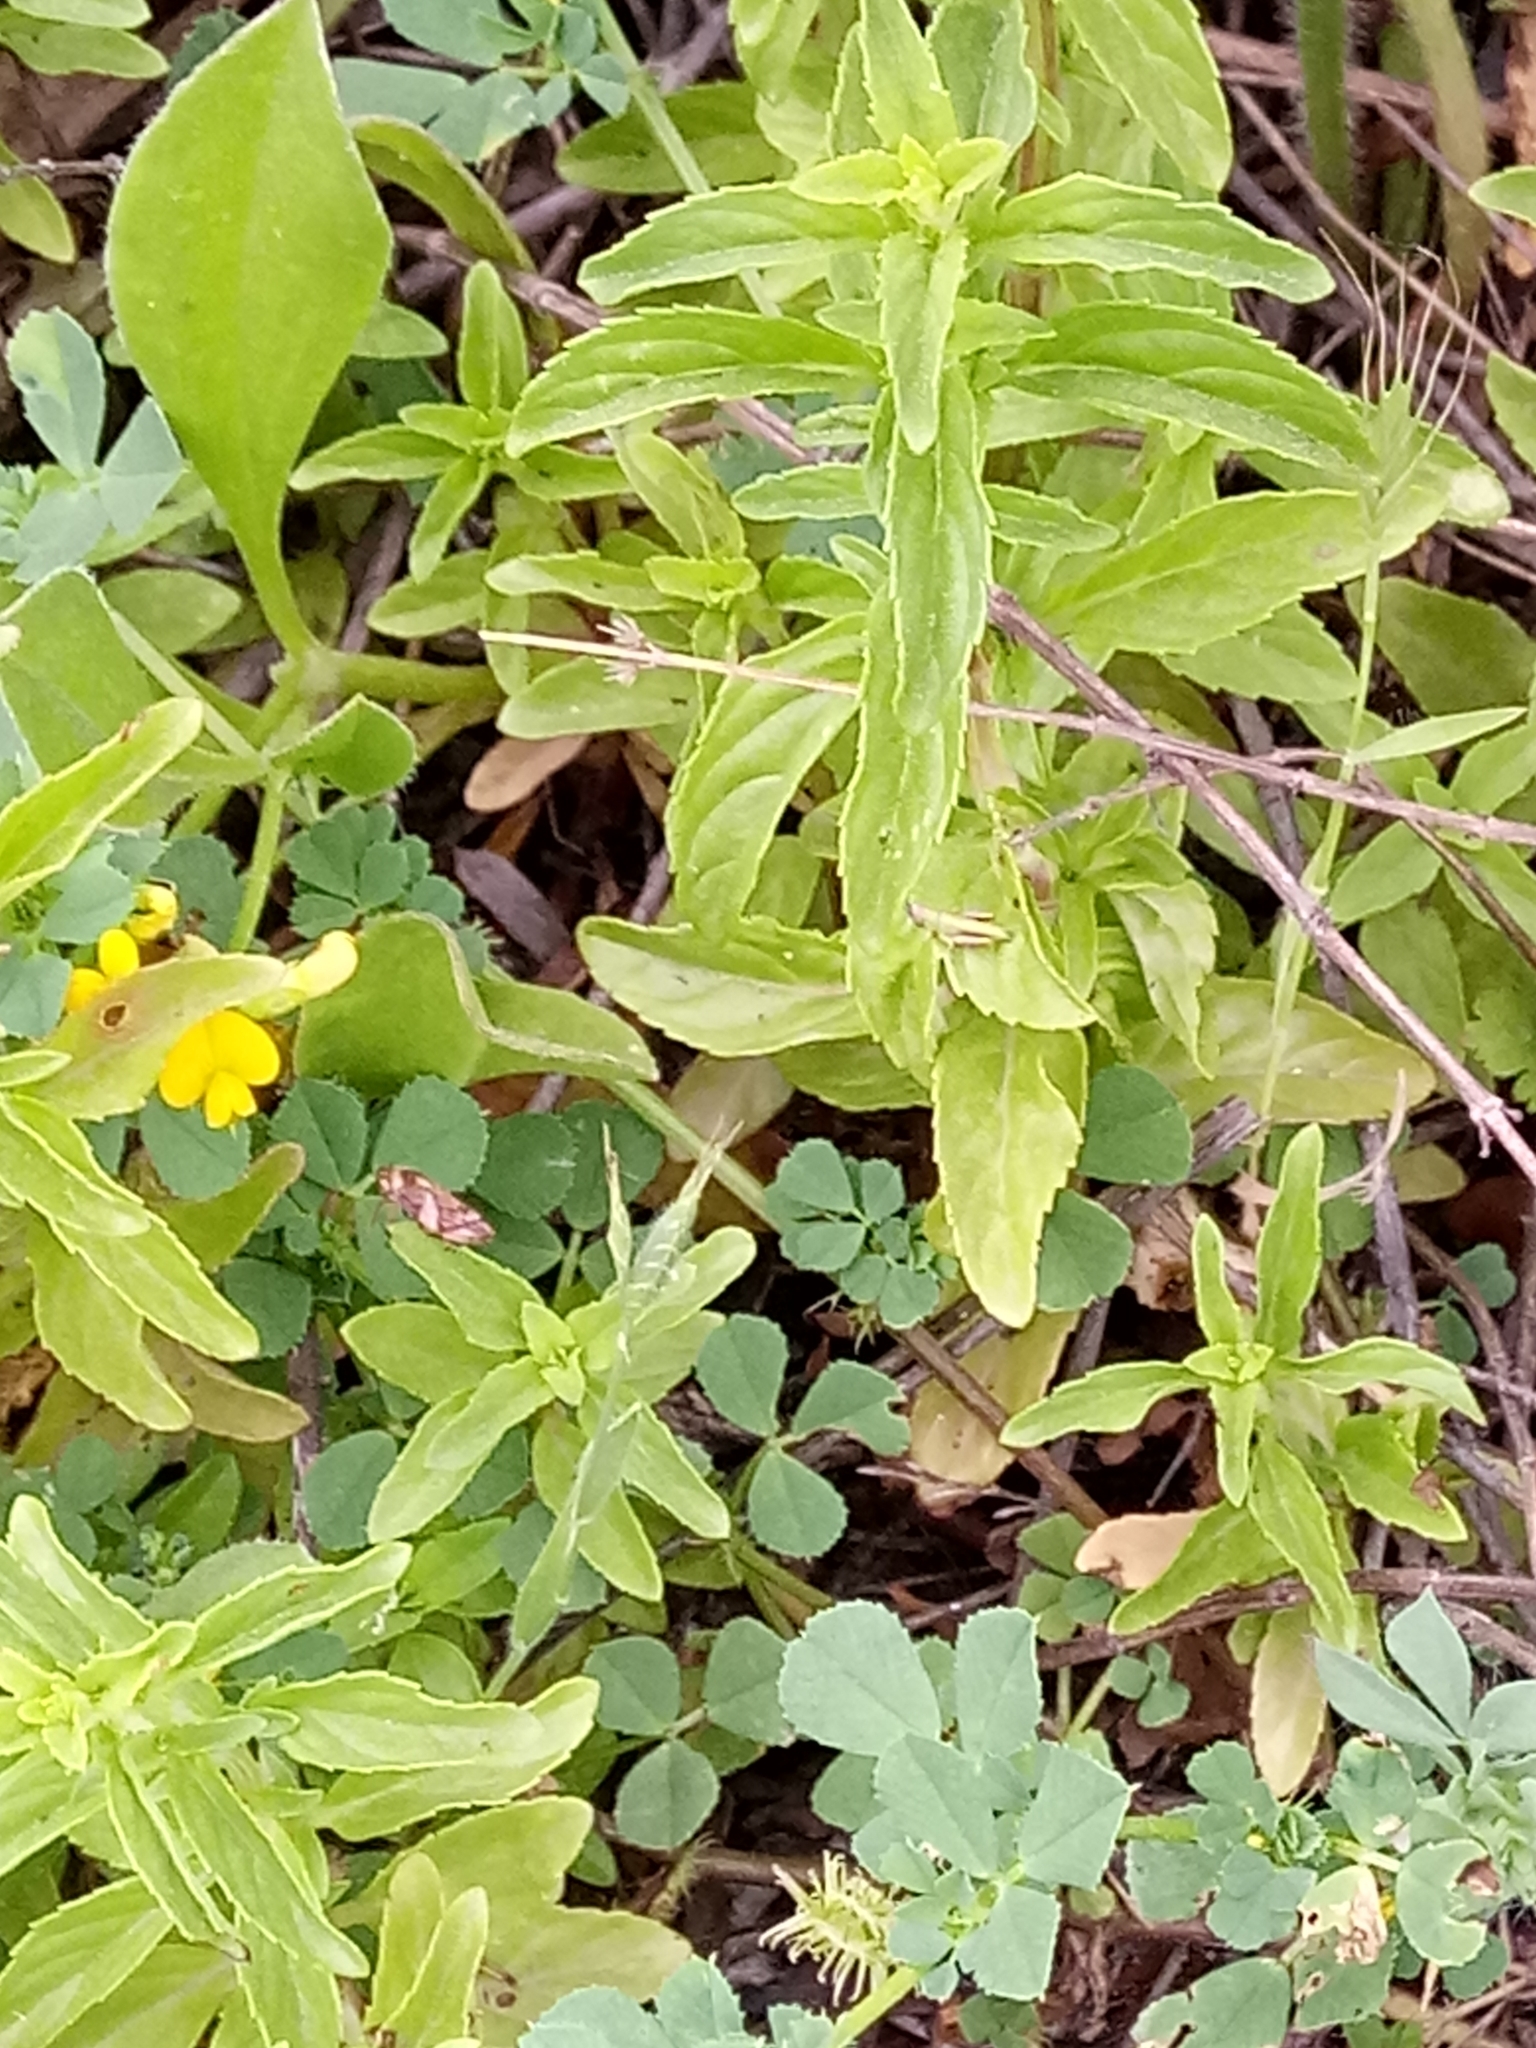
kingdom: Plantae
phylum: Tracheophyta
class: Magnoliopsida
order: Lamiales
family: Lamiaceae
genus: Mentha
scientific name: Mentha pulegium
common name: Pennyroyal
